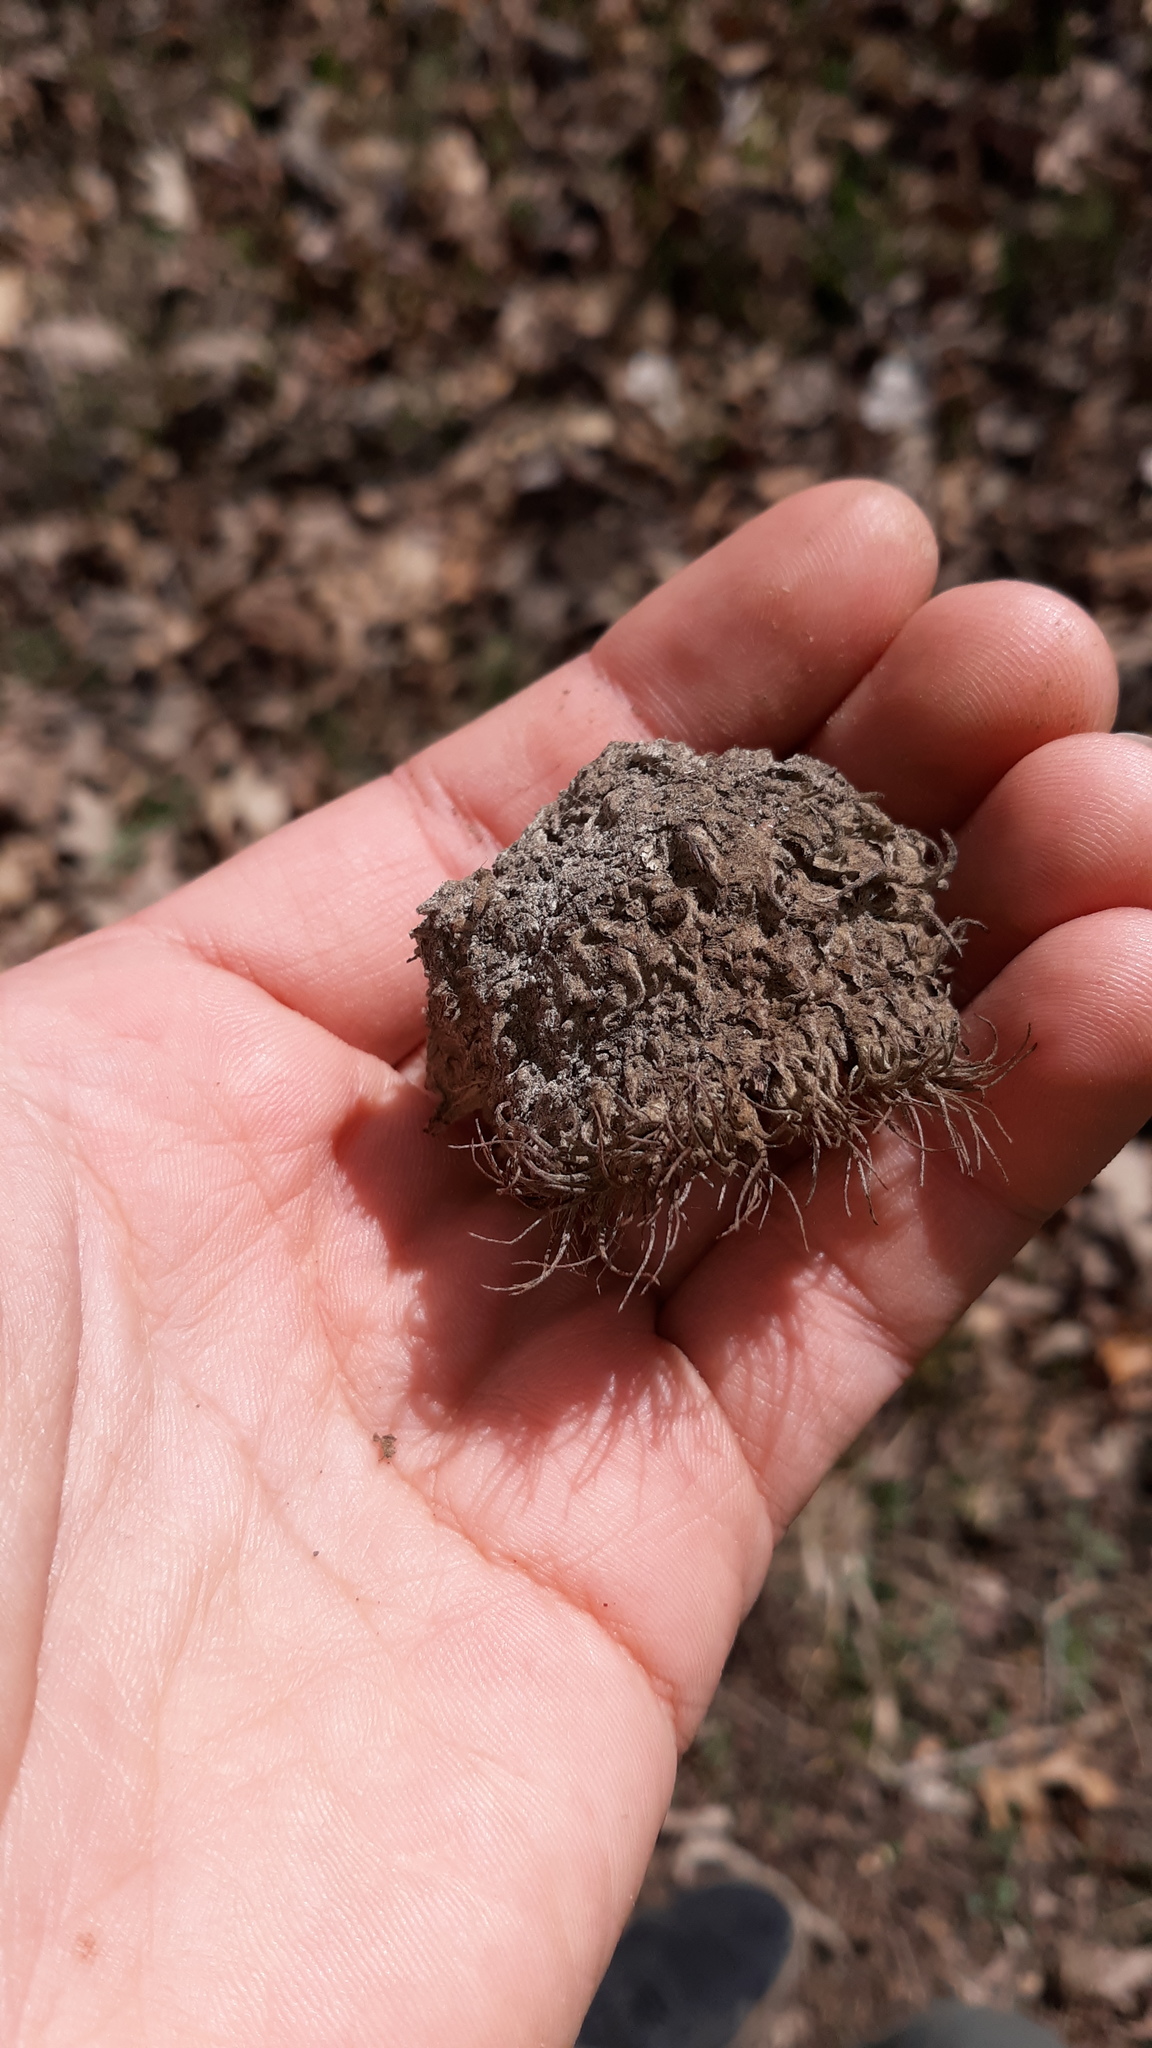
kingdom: Plantae
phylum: Tracheophyta
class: Magnoliopsida
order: Fagales
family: Fagaceae
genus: Quercus
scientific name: Quercus macrocarpa
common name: Bur oak
